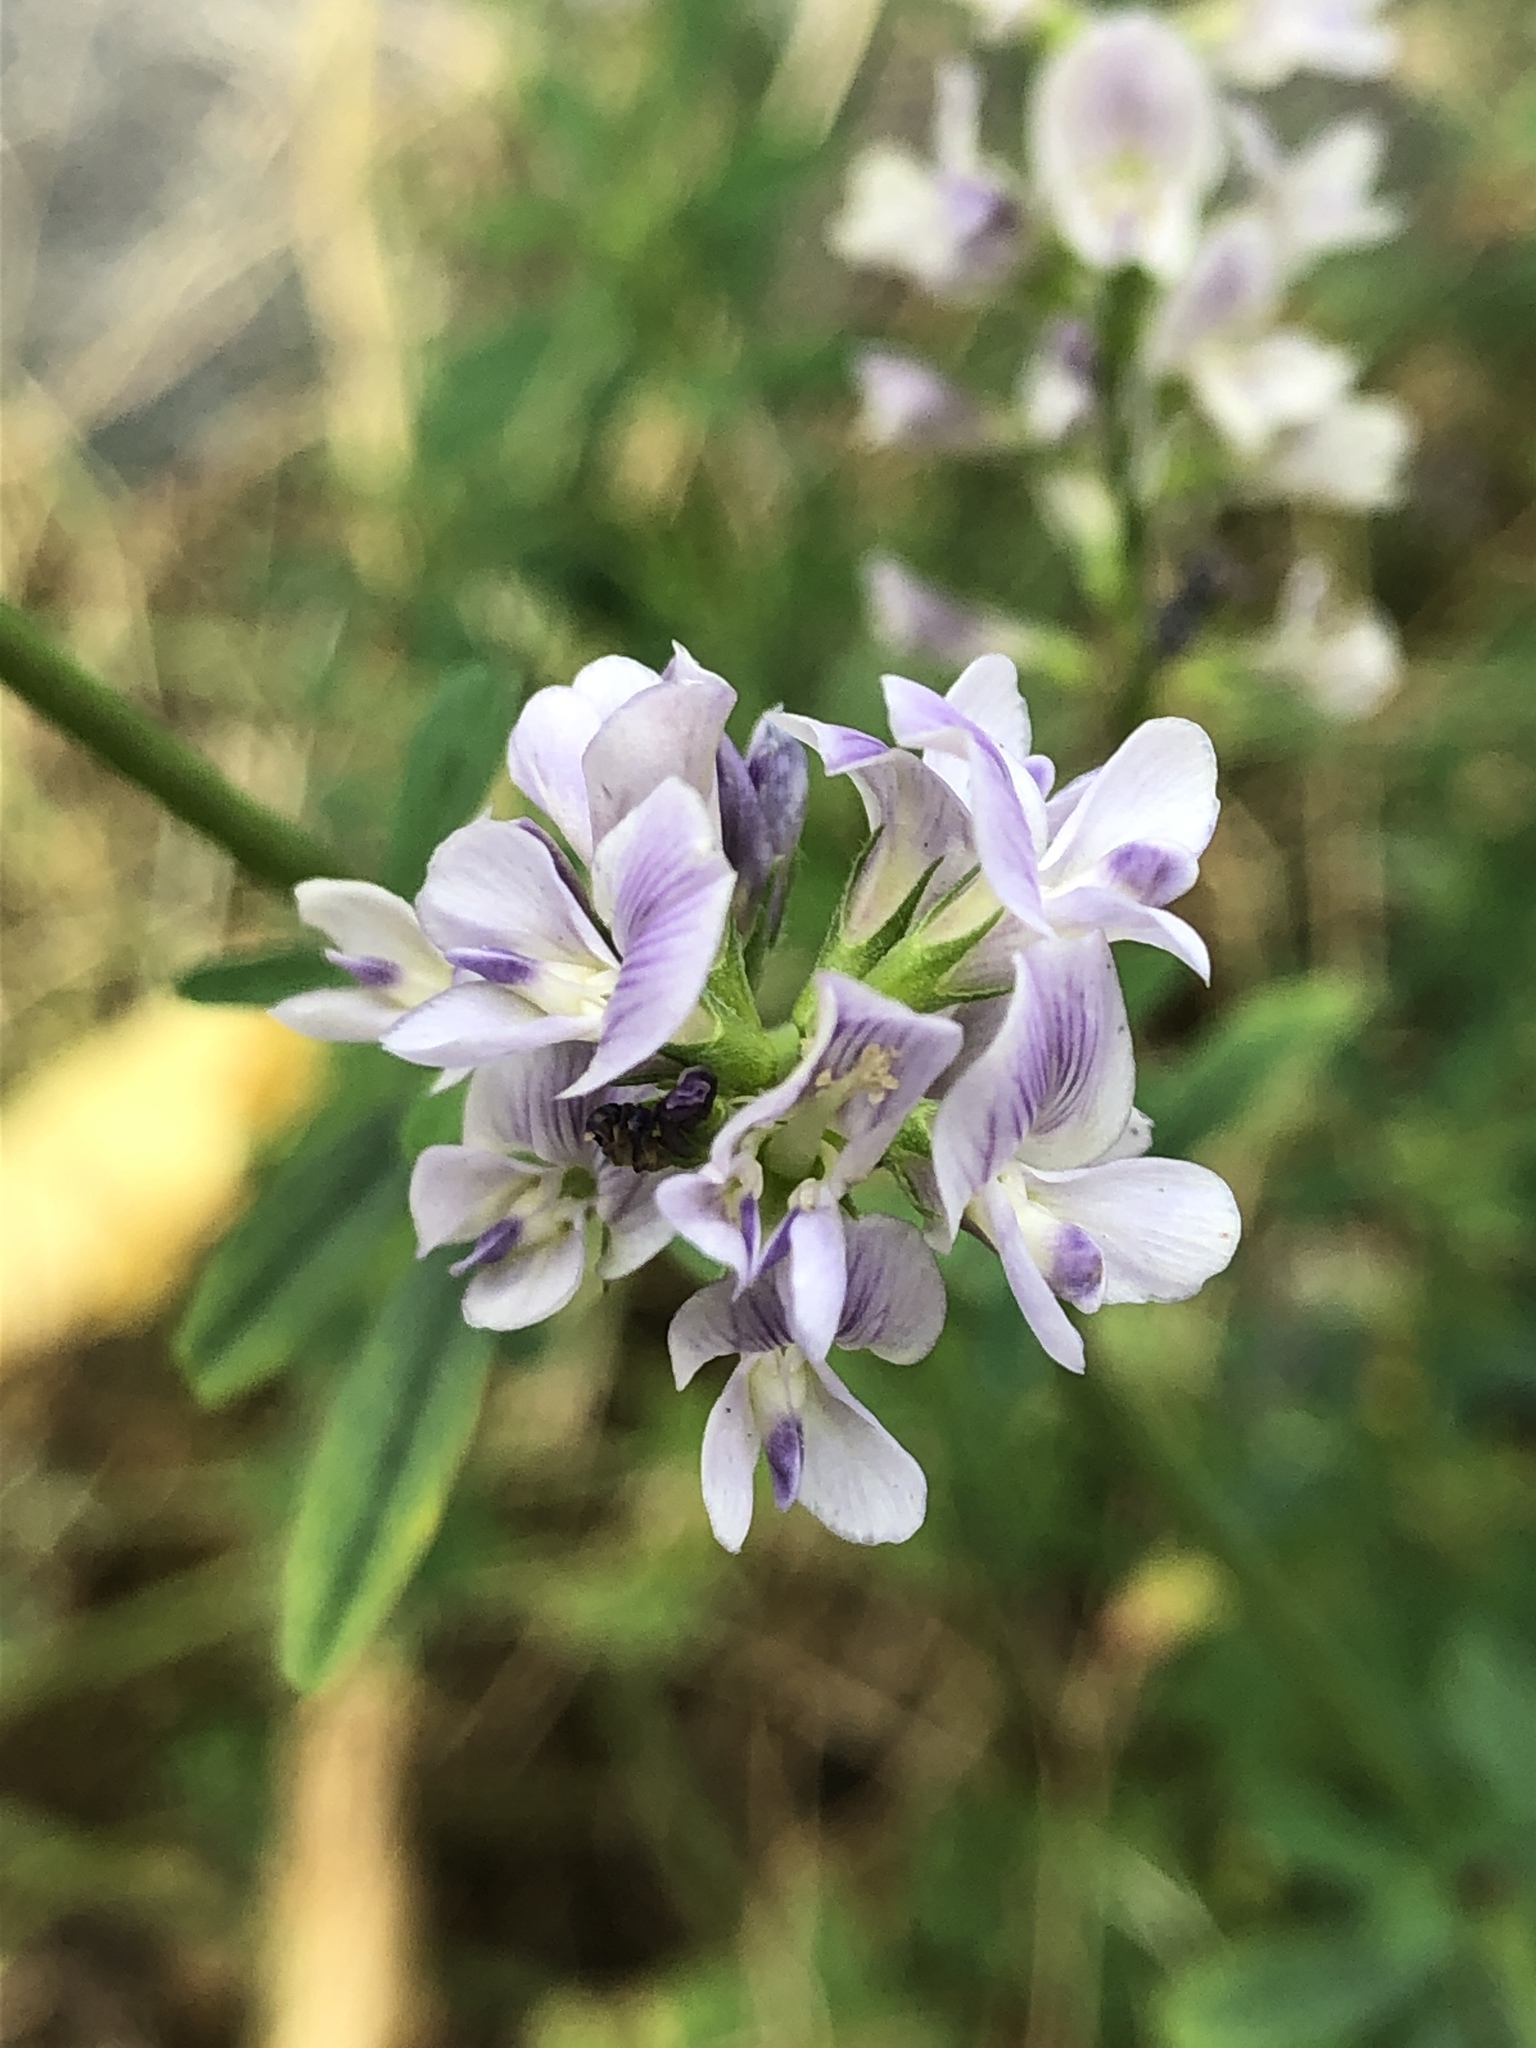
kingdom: Plantae
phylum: Tracheophyta
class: Magnoliopsida
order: Fabales
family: Fabaceae
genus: Medicago
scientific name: Medicago sativa
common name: Alfalfa
